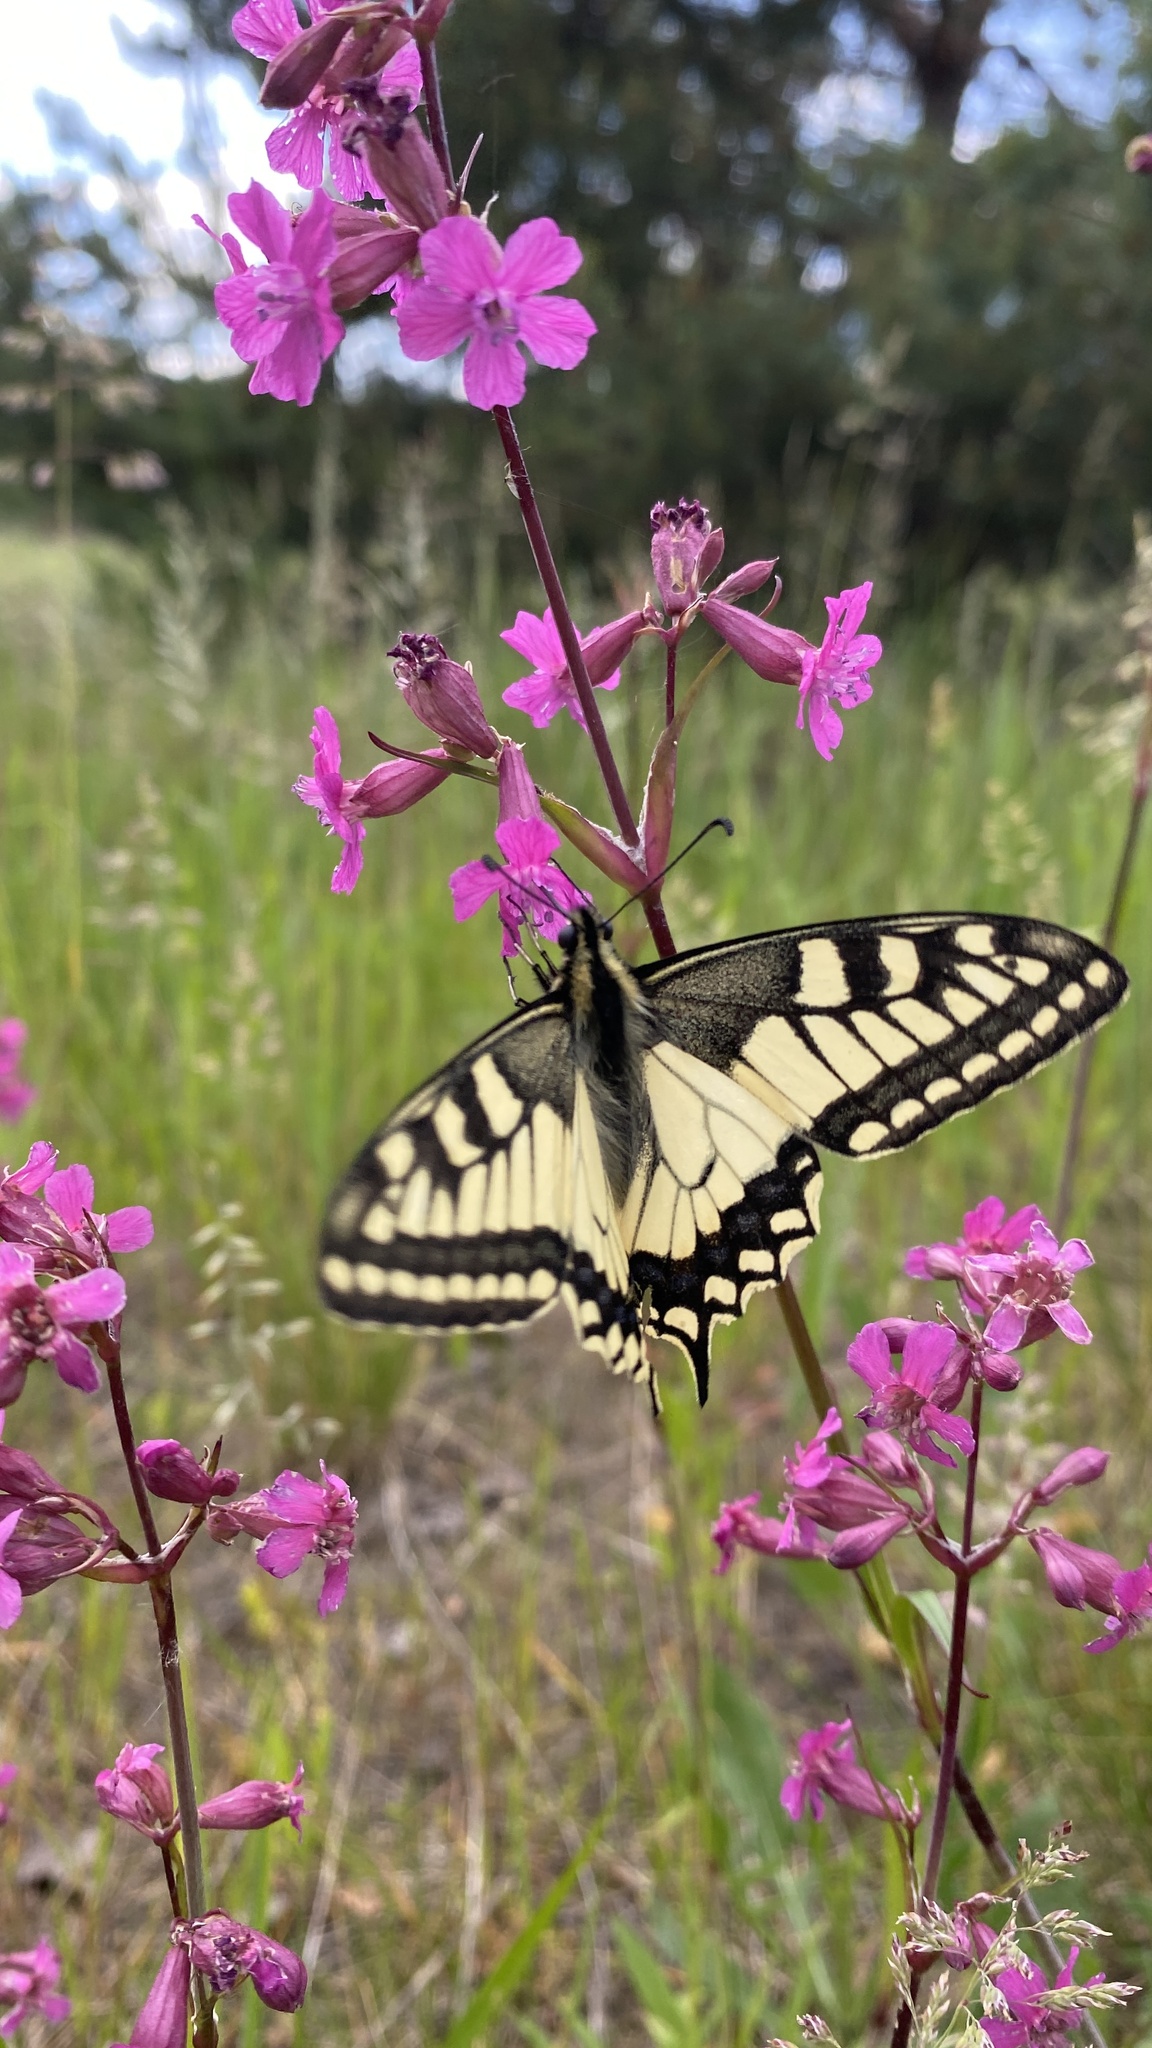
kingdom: Animalia
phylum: Arthropoda
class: Insecta
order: Lepidoptera
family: Papilionidae
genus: Papilio
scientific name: Papilio machaon
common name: Swallowtail
